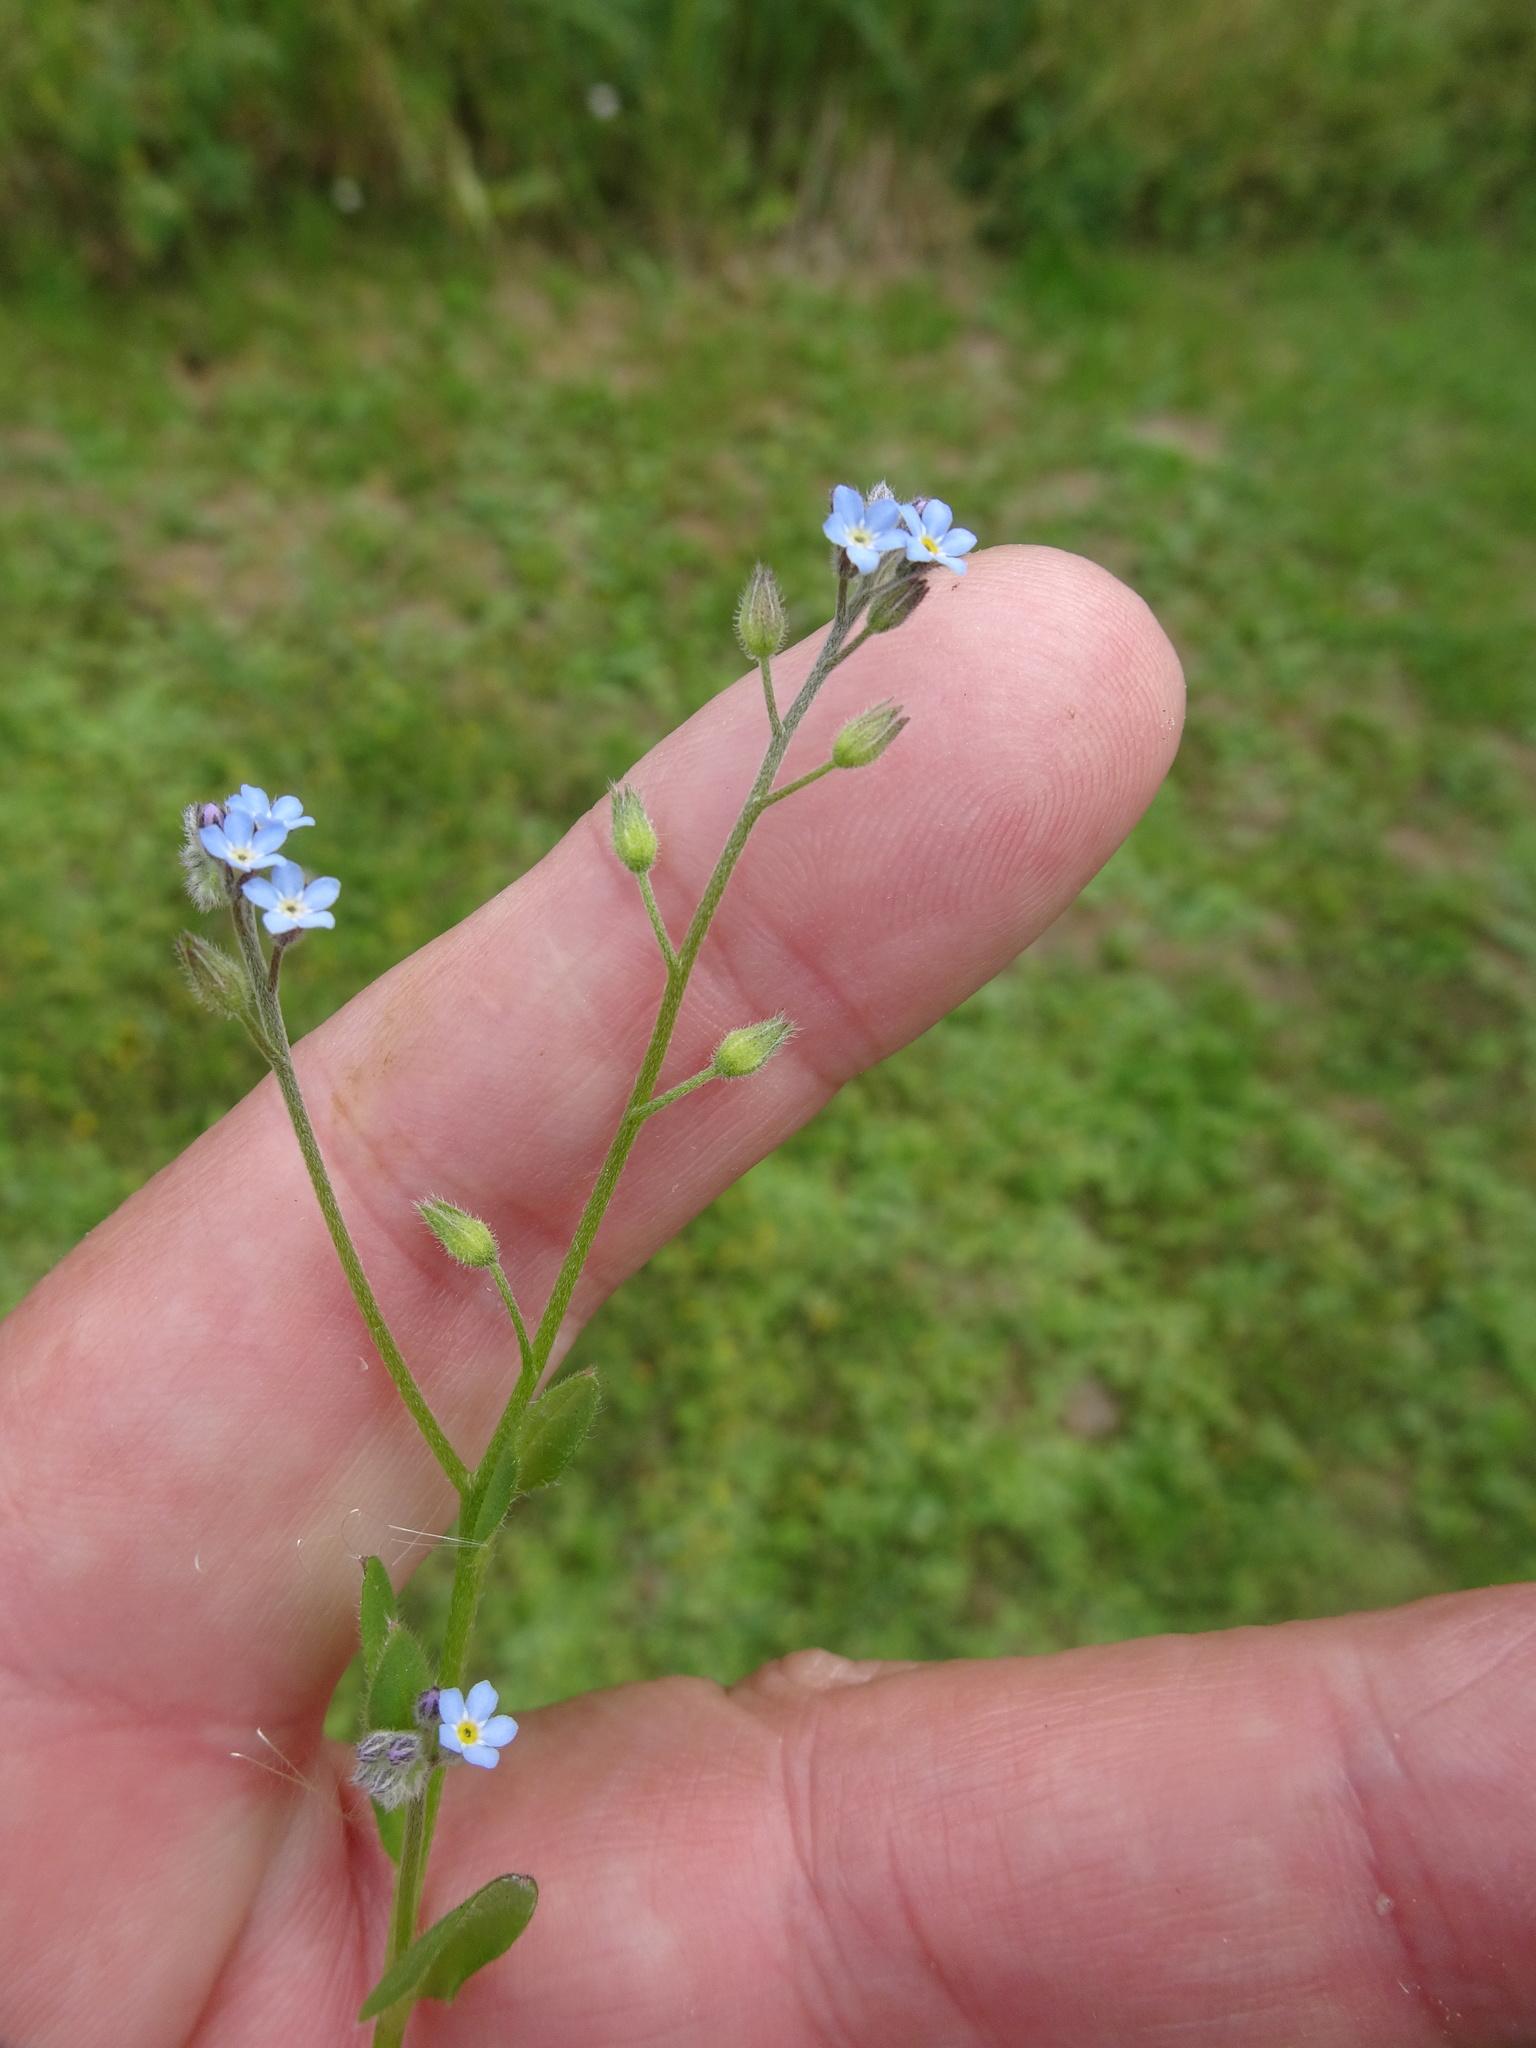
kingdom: Plantae
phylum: Tracheophyta
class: Magnoliopsida
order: Boraginales
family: Boraginaceae
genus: Myosotis
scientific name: Myosotis arvensis
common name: Field forget-me-not
